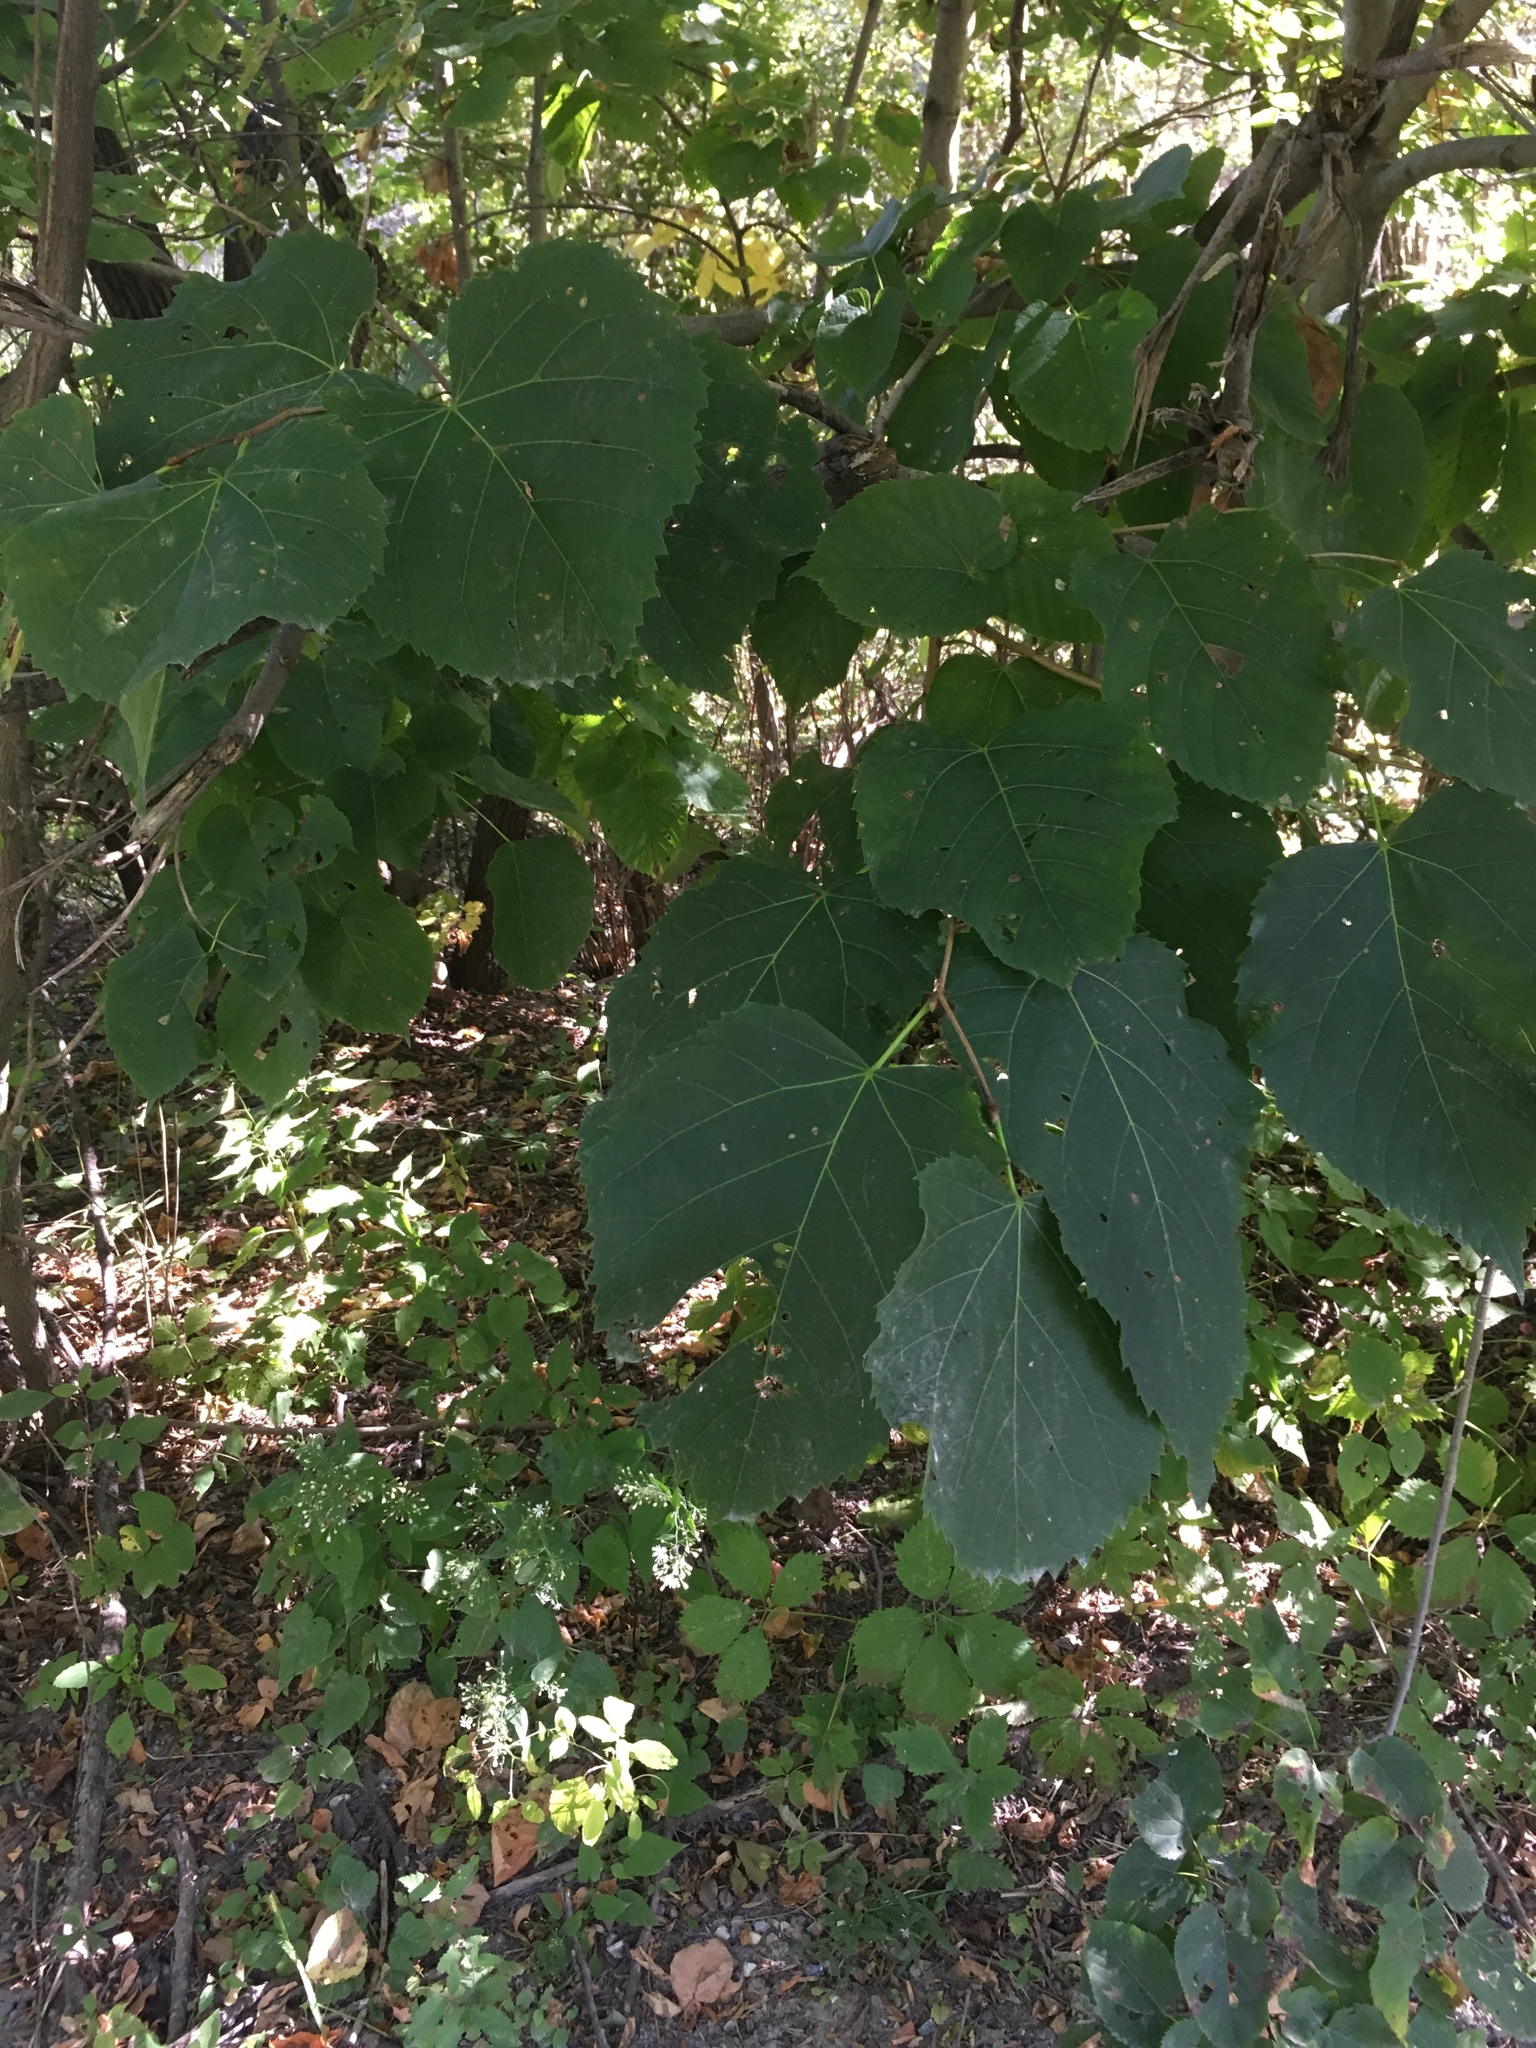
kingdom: Plantae
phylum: Tracheophyta
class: Magnoliopsida
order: Malvales
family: Malvaceae
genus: Tilia
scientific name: Tilia americana
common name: Basswood
